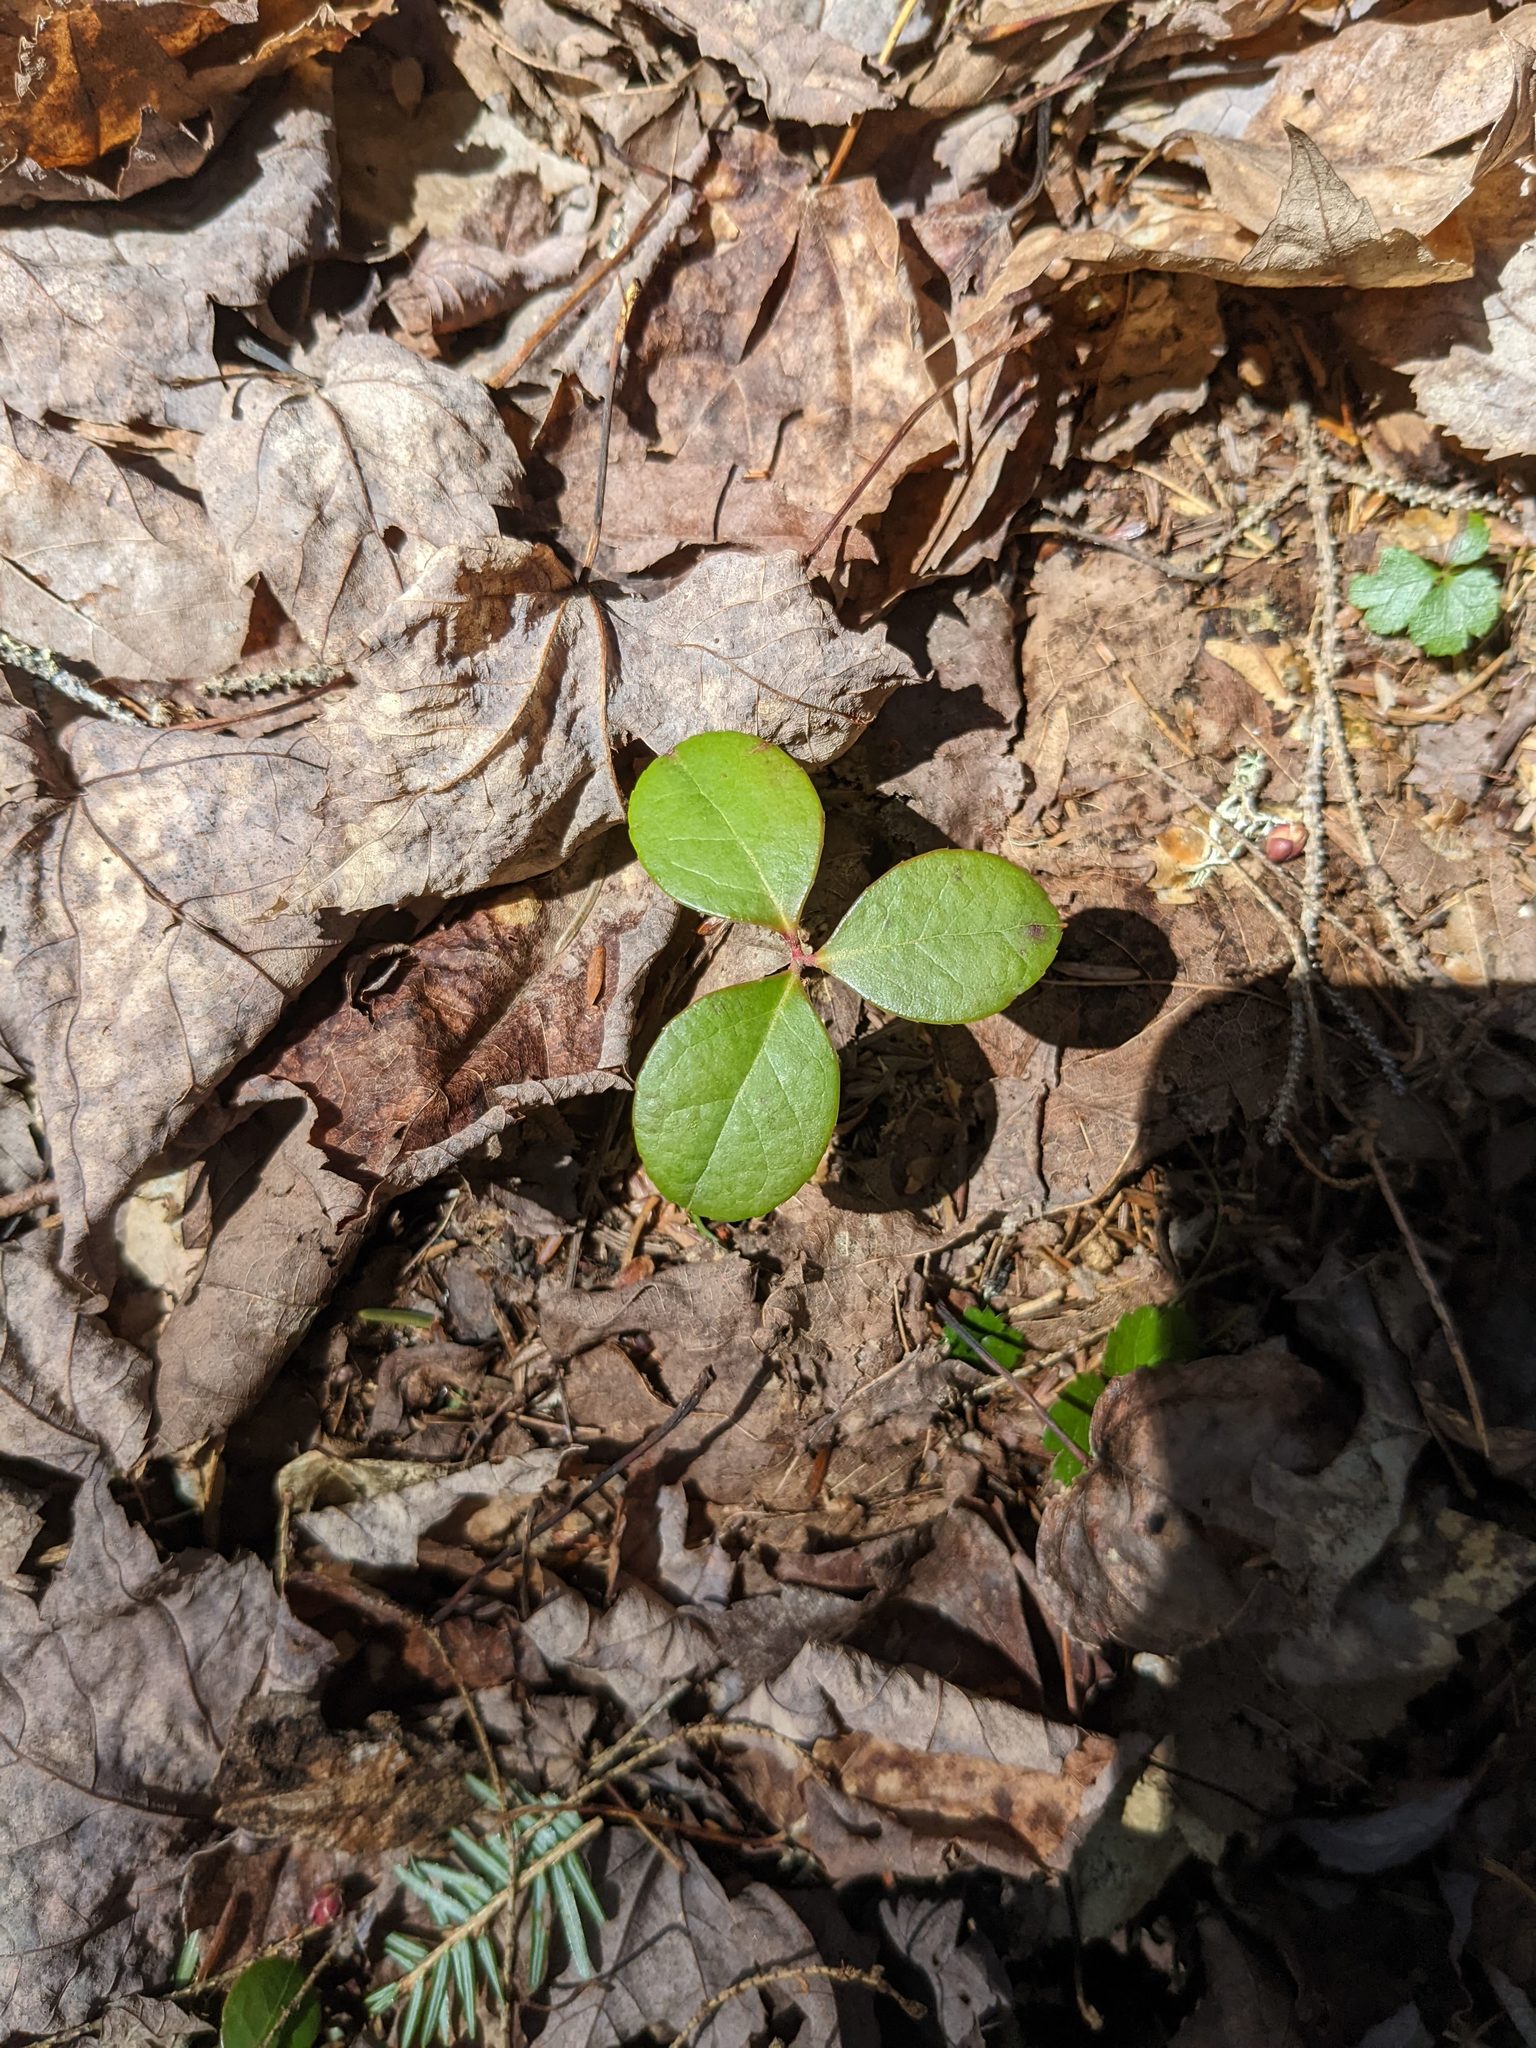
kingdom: Plantae
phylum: Tracheophyta
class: Magnoliopsida
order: Ericales
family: Ericaceae
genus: Gaultheria
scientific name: Gaultheria procumbens
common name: Checkerberry
